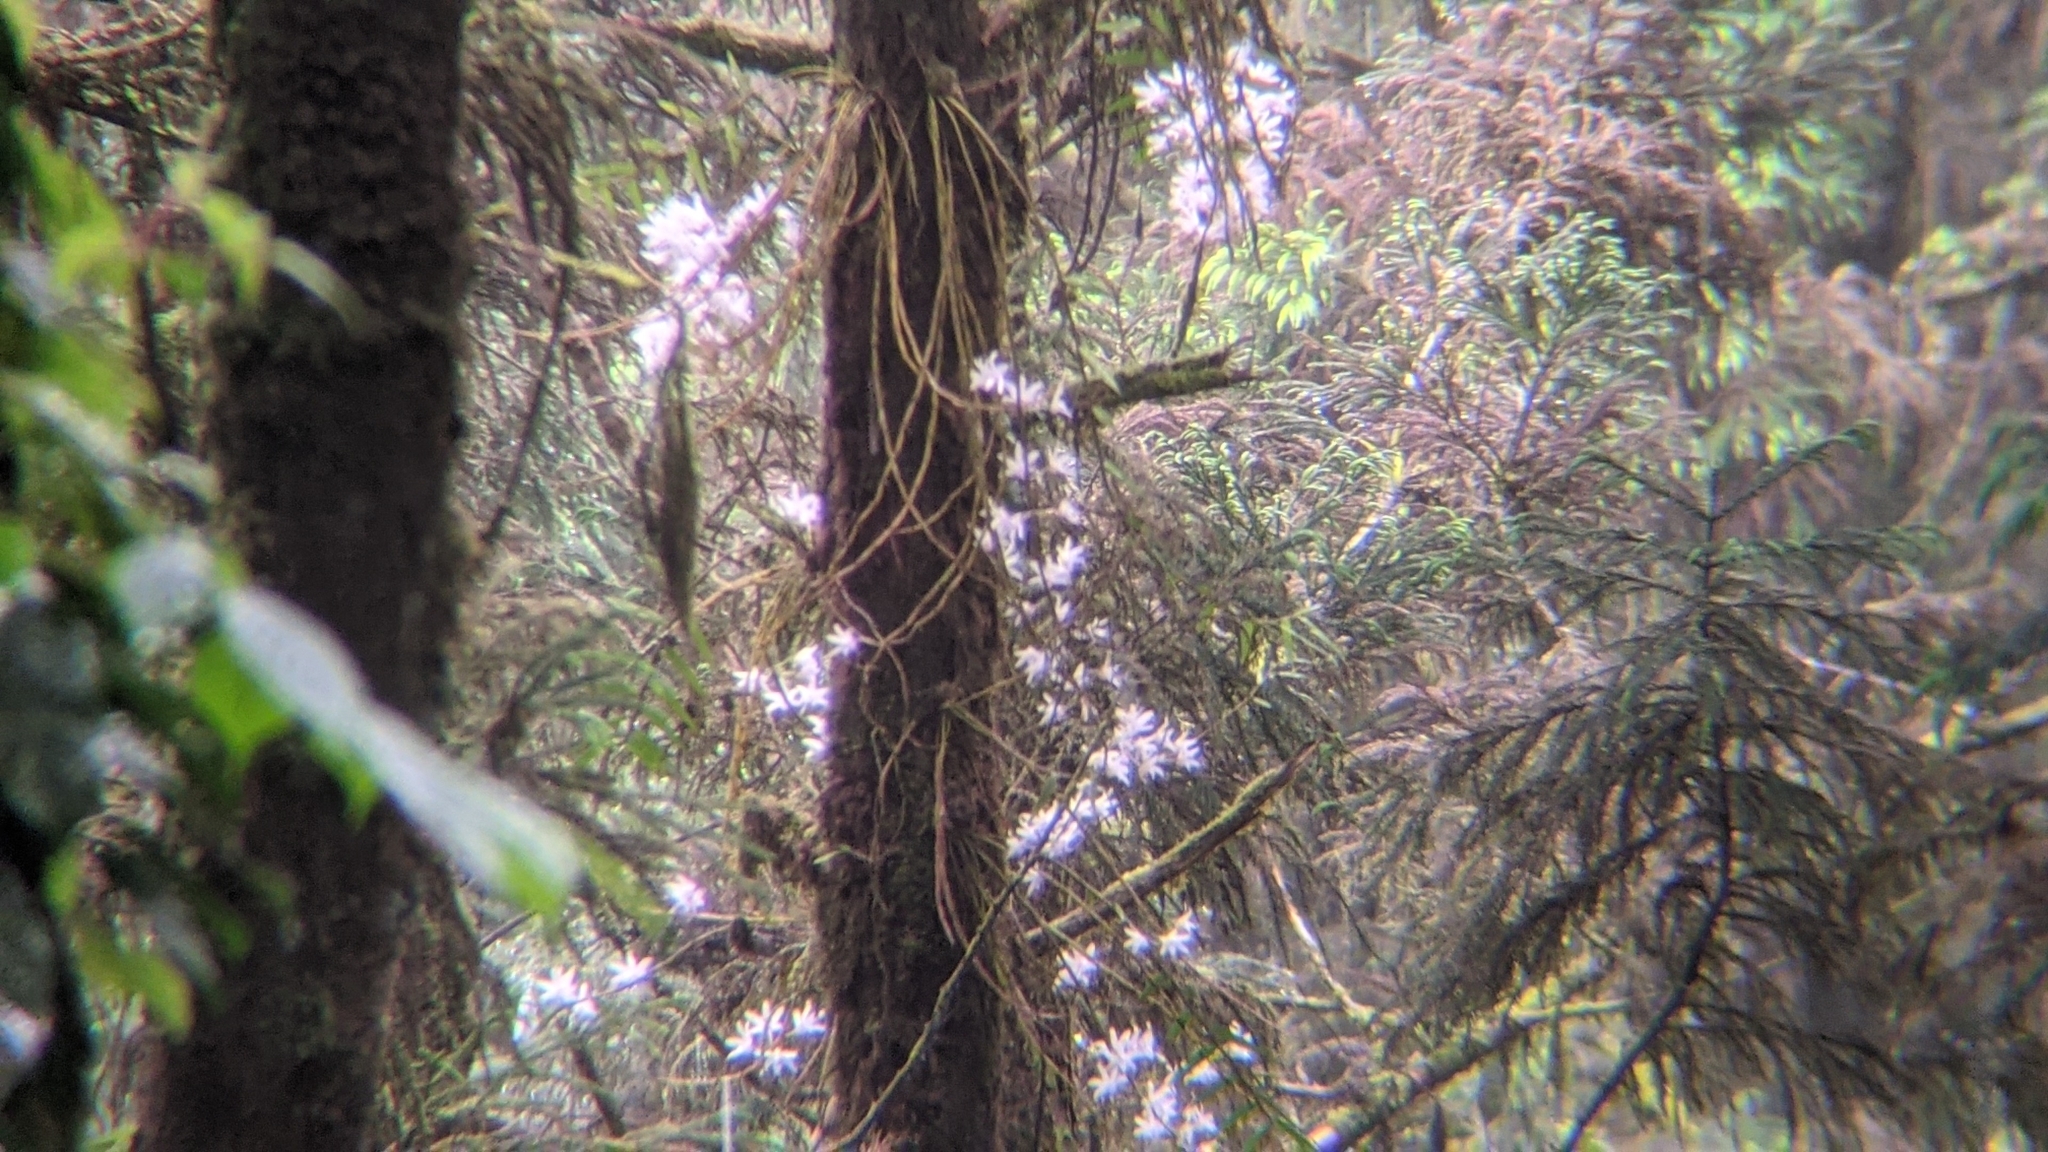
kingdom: Plantae
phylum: Tracheophyta
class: Liliopsida
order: Asparagales
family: Orchidaceae
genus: Dendrobium
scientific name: Dendrobium moniliforme
